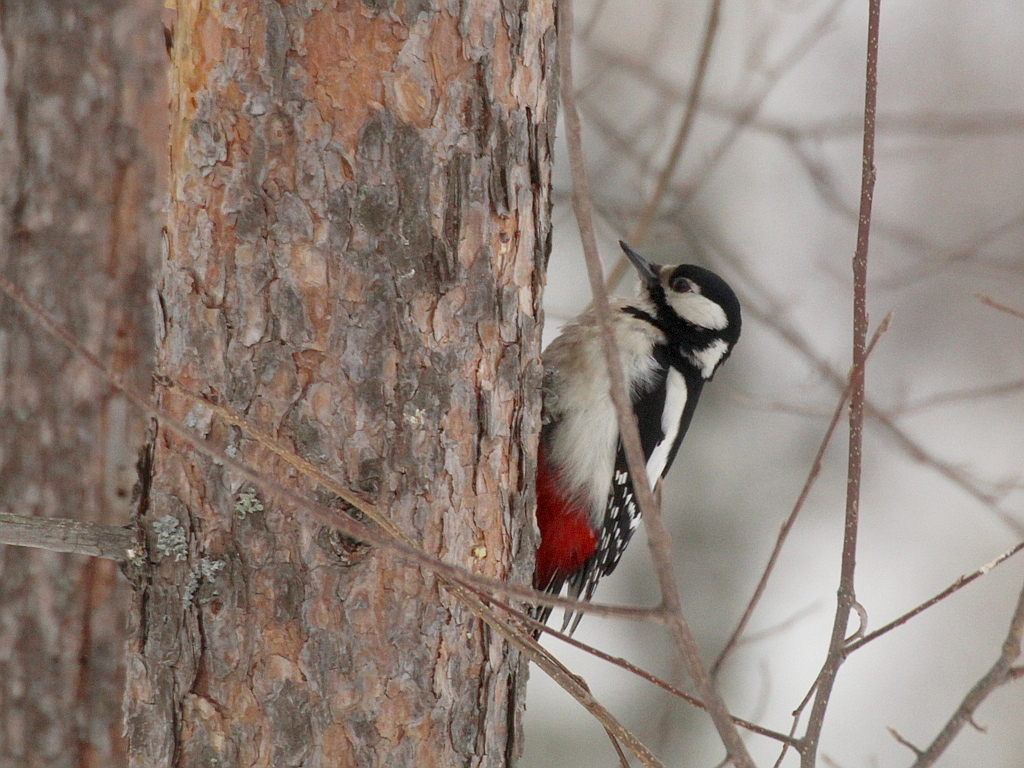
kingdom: Animalia
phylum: Chordata
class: Aves
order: Piciformes
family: Picidae
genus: Dendrocopos
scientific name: Dendrocopos major
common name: Great spotted woodpecker
